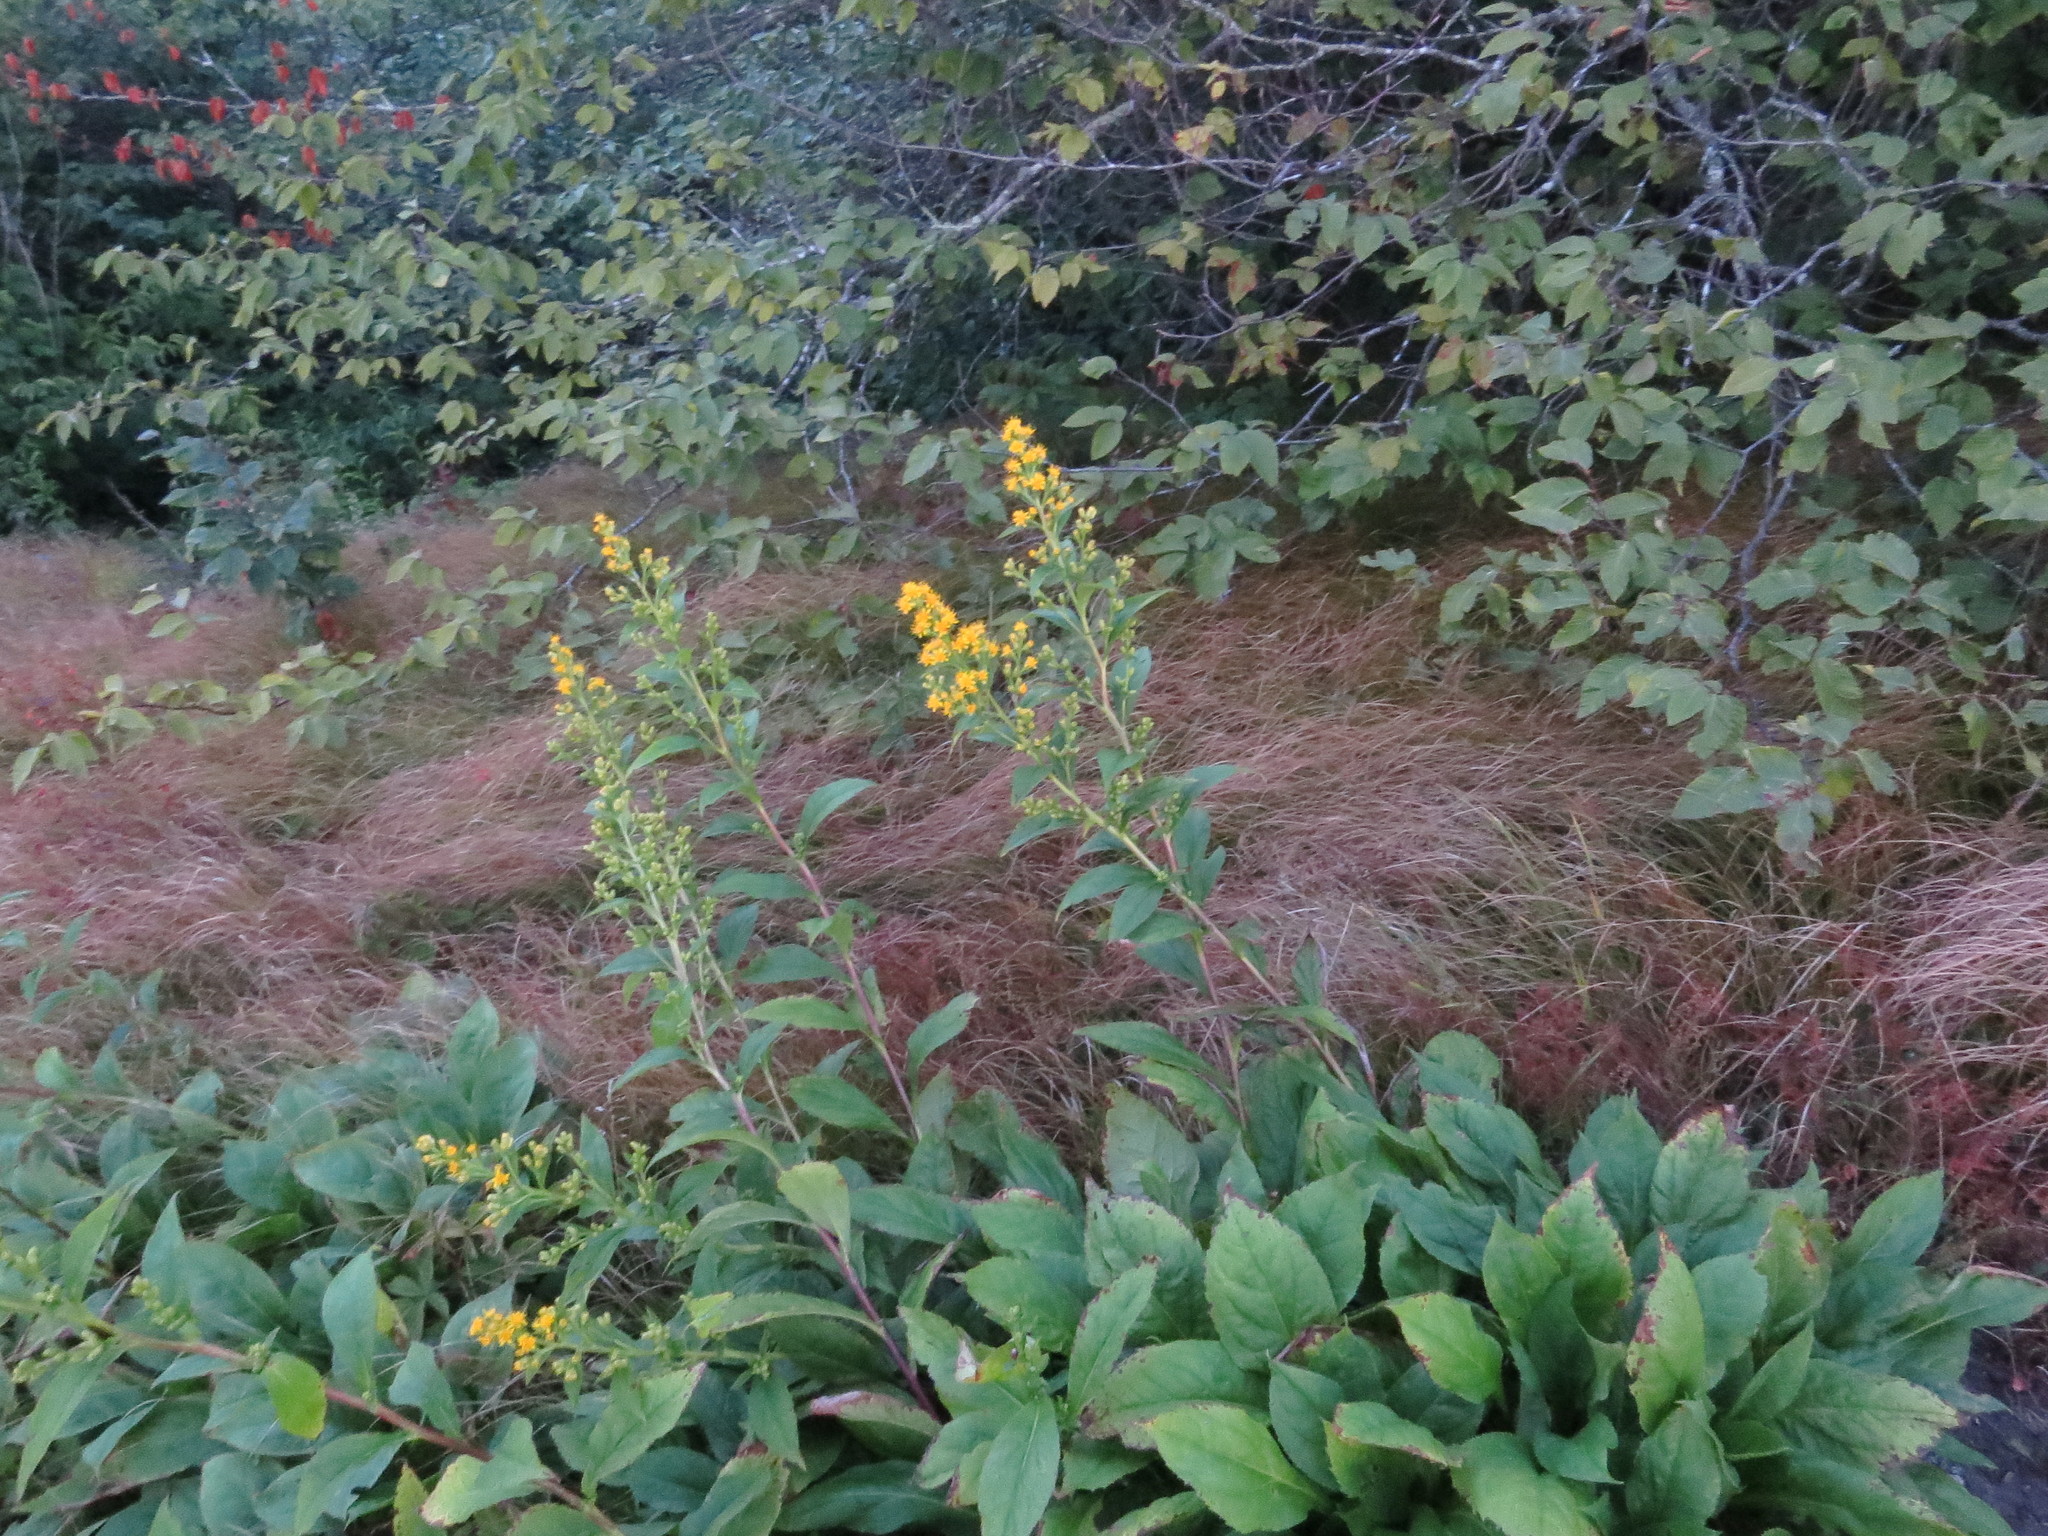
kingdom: Plantae
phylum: Tracheophyta
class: Magnoliopsida
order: Asterales
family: Asteraceae
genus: Solidago
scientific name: Solidago glomerata
